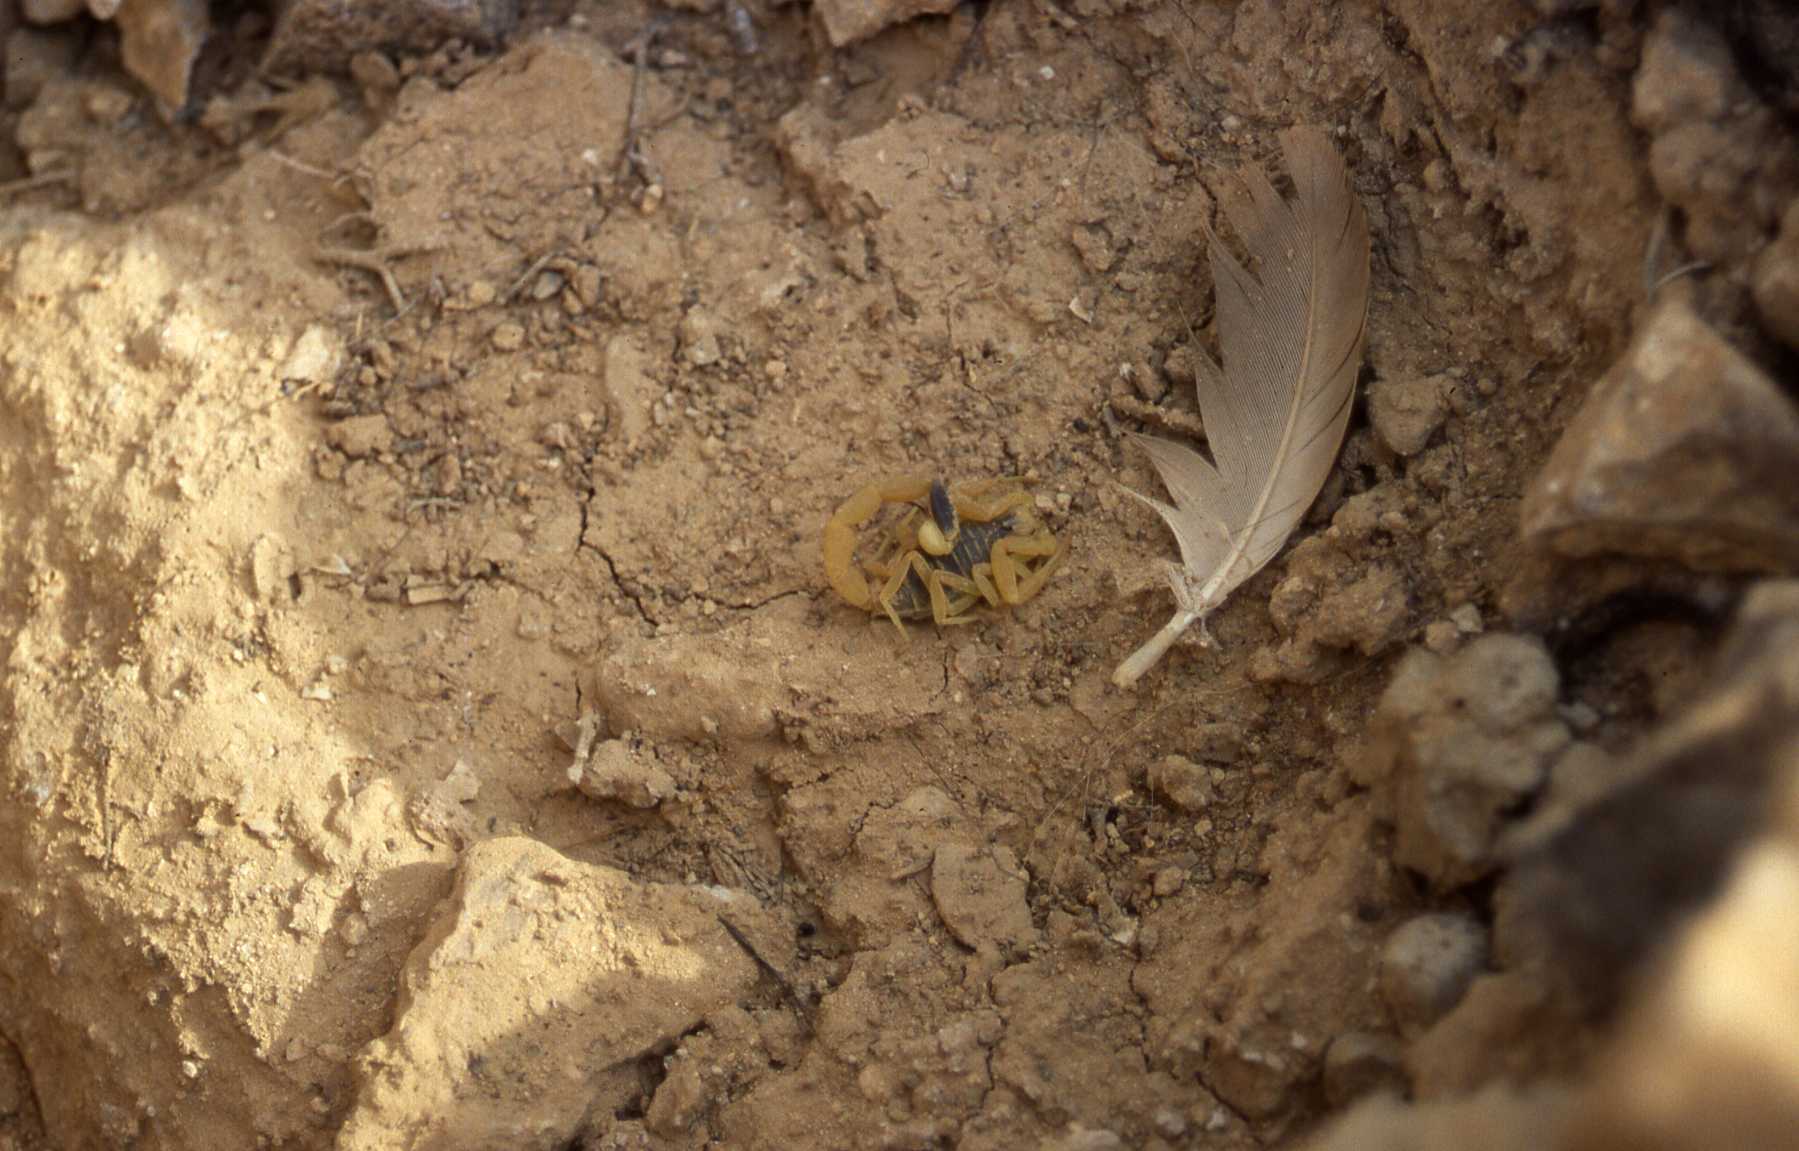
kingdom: Animalia
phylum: Arthropoda
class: Arachnida
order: Scorpiones
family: Buthidae
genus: Leiurus
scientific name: Leiurus hebraeus
